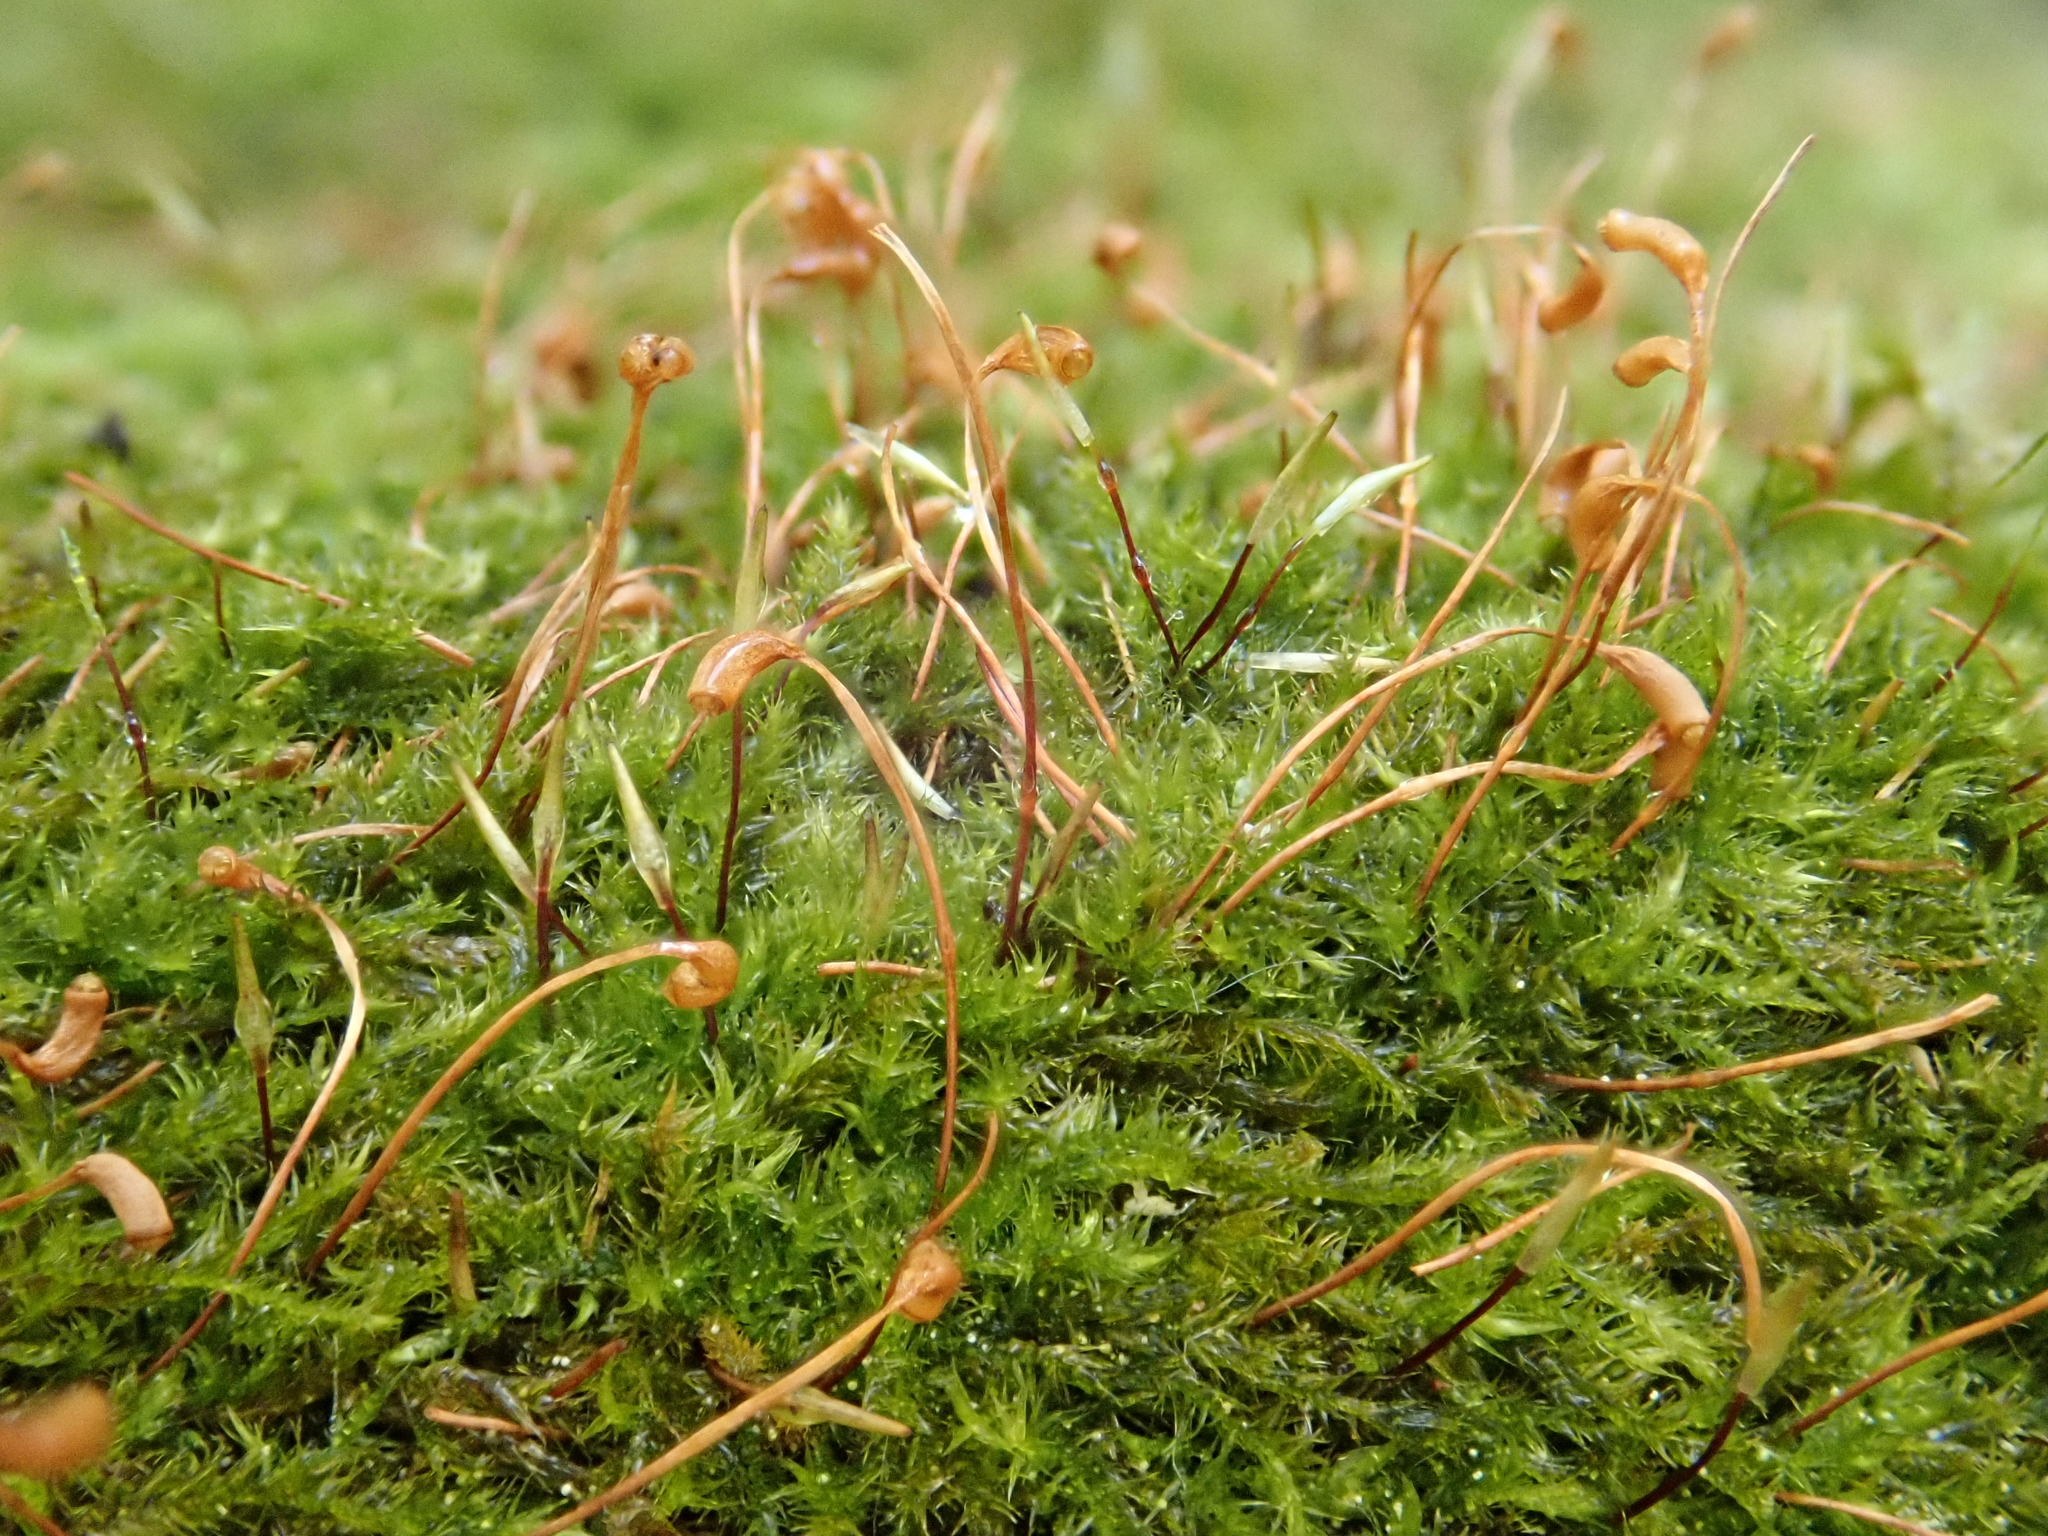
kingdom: Plantae
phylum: Bryophyta
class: Bryopsida
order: Hypnales
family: Pylaisiaceae
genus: Homomallium
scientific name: Homomallium incurvatum
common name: Incurved feather-moss
